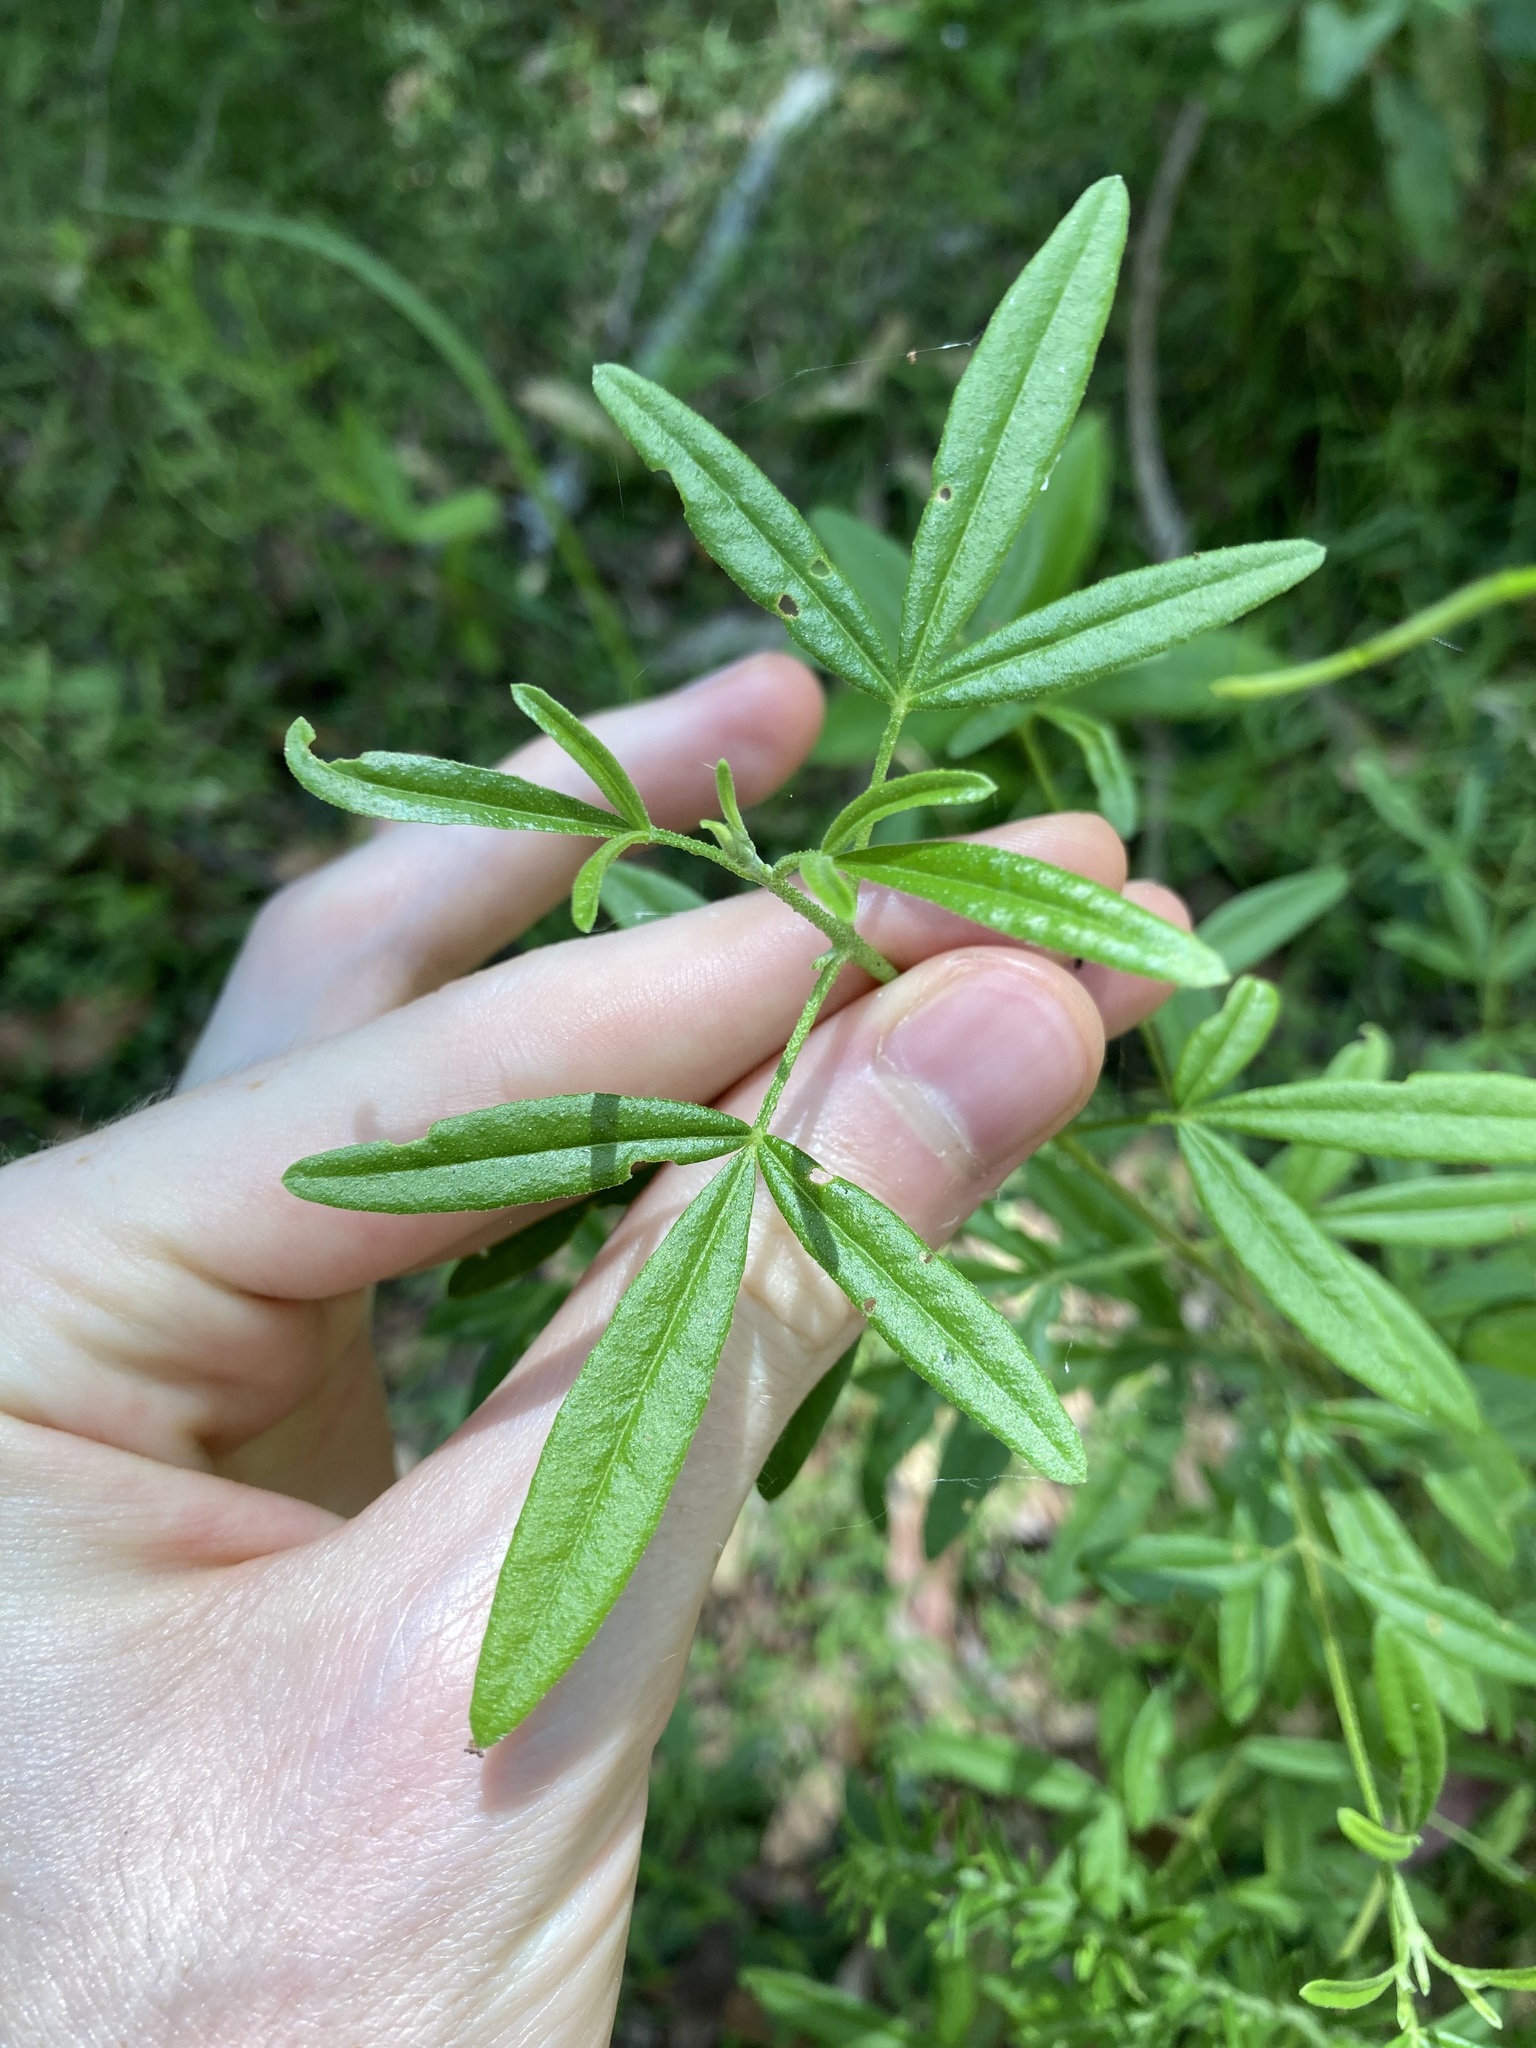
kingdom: Plantae
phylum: Tracheophyta
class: Magnoliopsida
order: Sapindales
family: Rutaceae
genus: Zieria
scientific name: Zieria smithii
